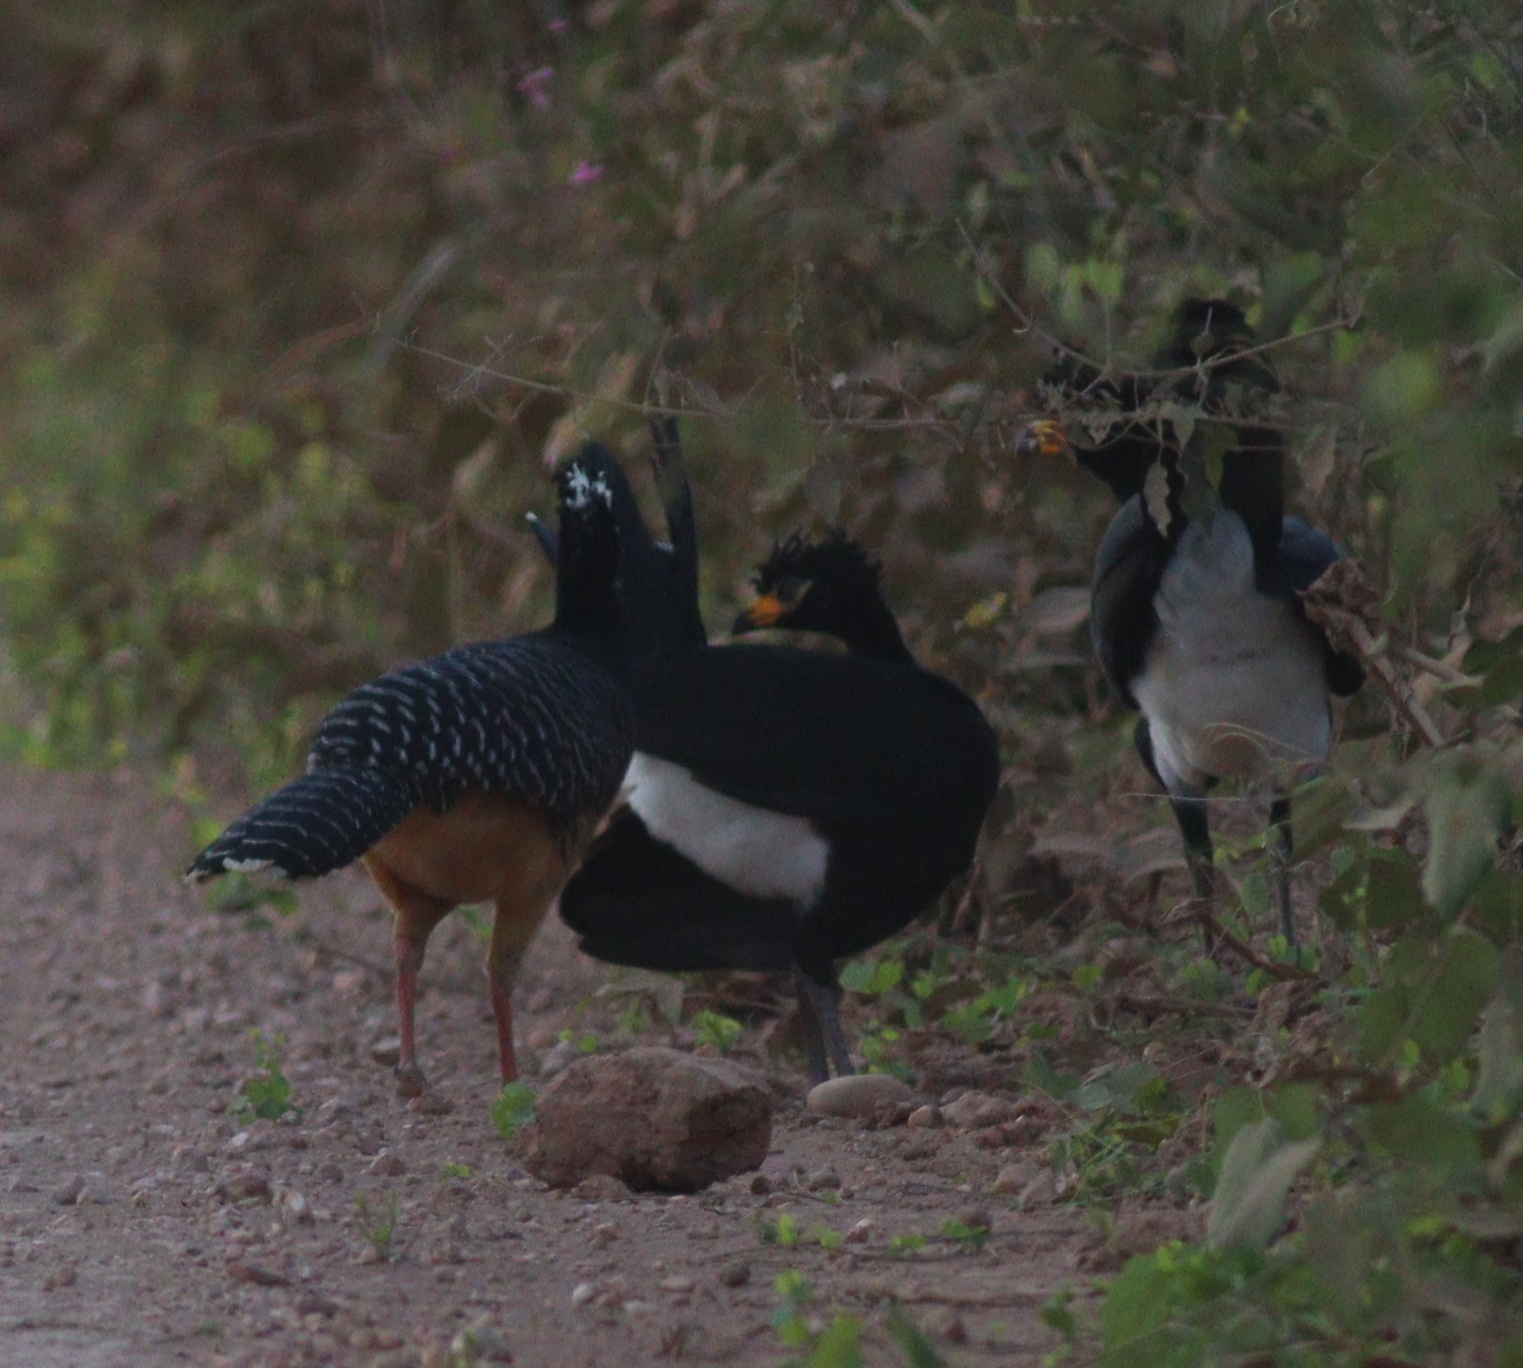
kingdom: Animalia
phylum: Chordata
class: Aves
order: Galliformes
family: Cracidae
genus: Crax
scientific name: Crax fasciolata
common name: Bare-faced curassow
